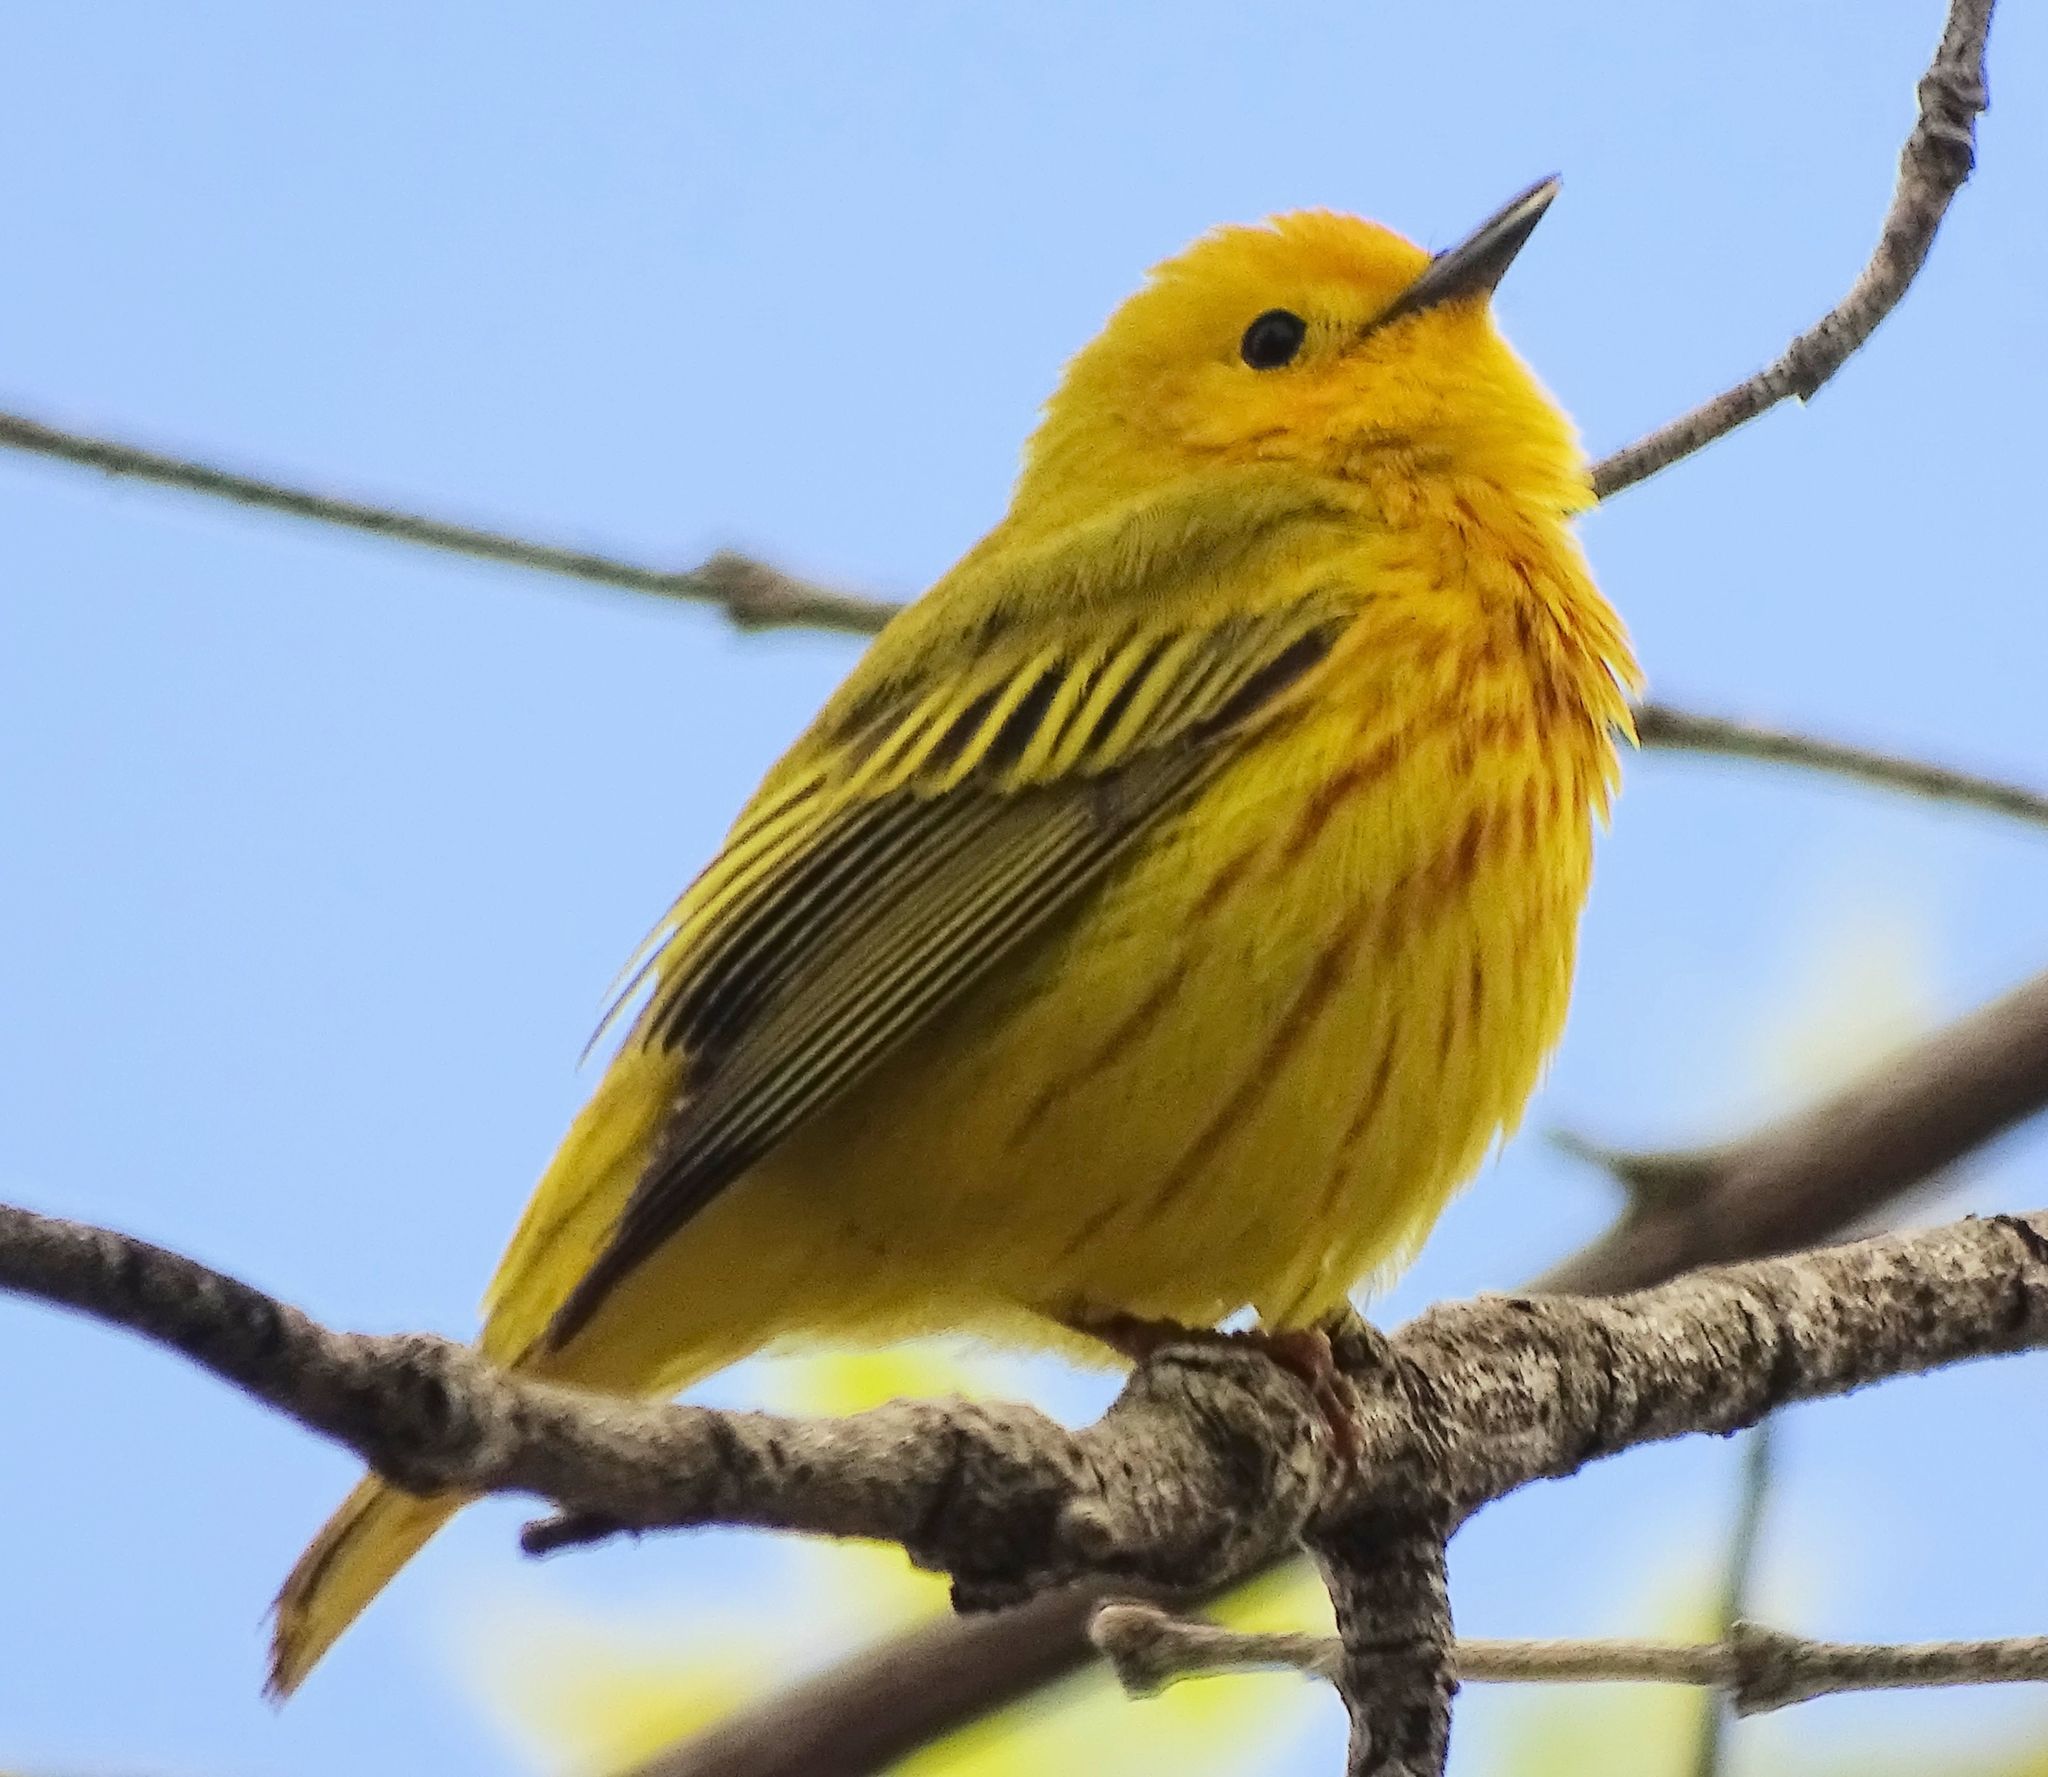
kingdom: Animalia
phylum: Chordata
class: Aves
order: Passeriformes
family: Parulidae
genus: Setophaga
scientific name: Setophaga petechia
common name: Yellow warbler
